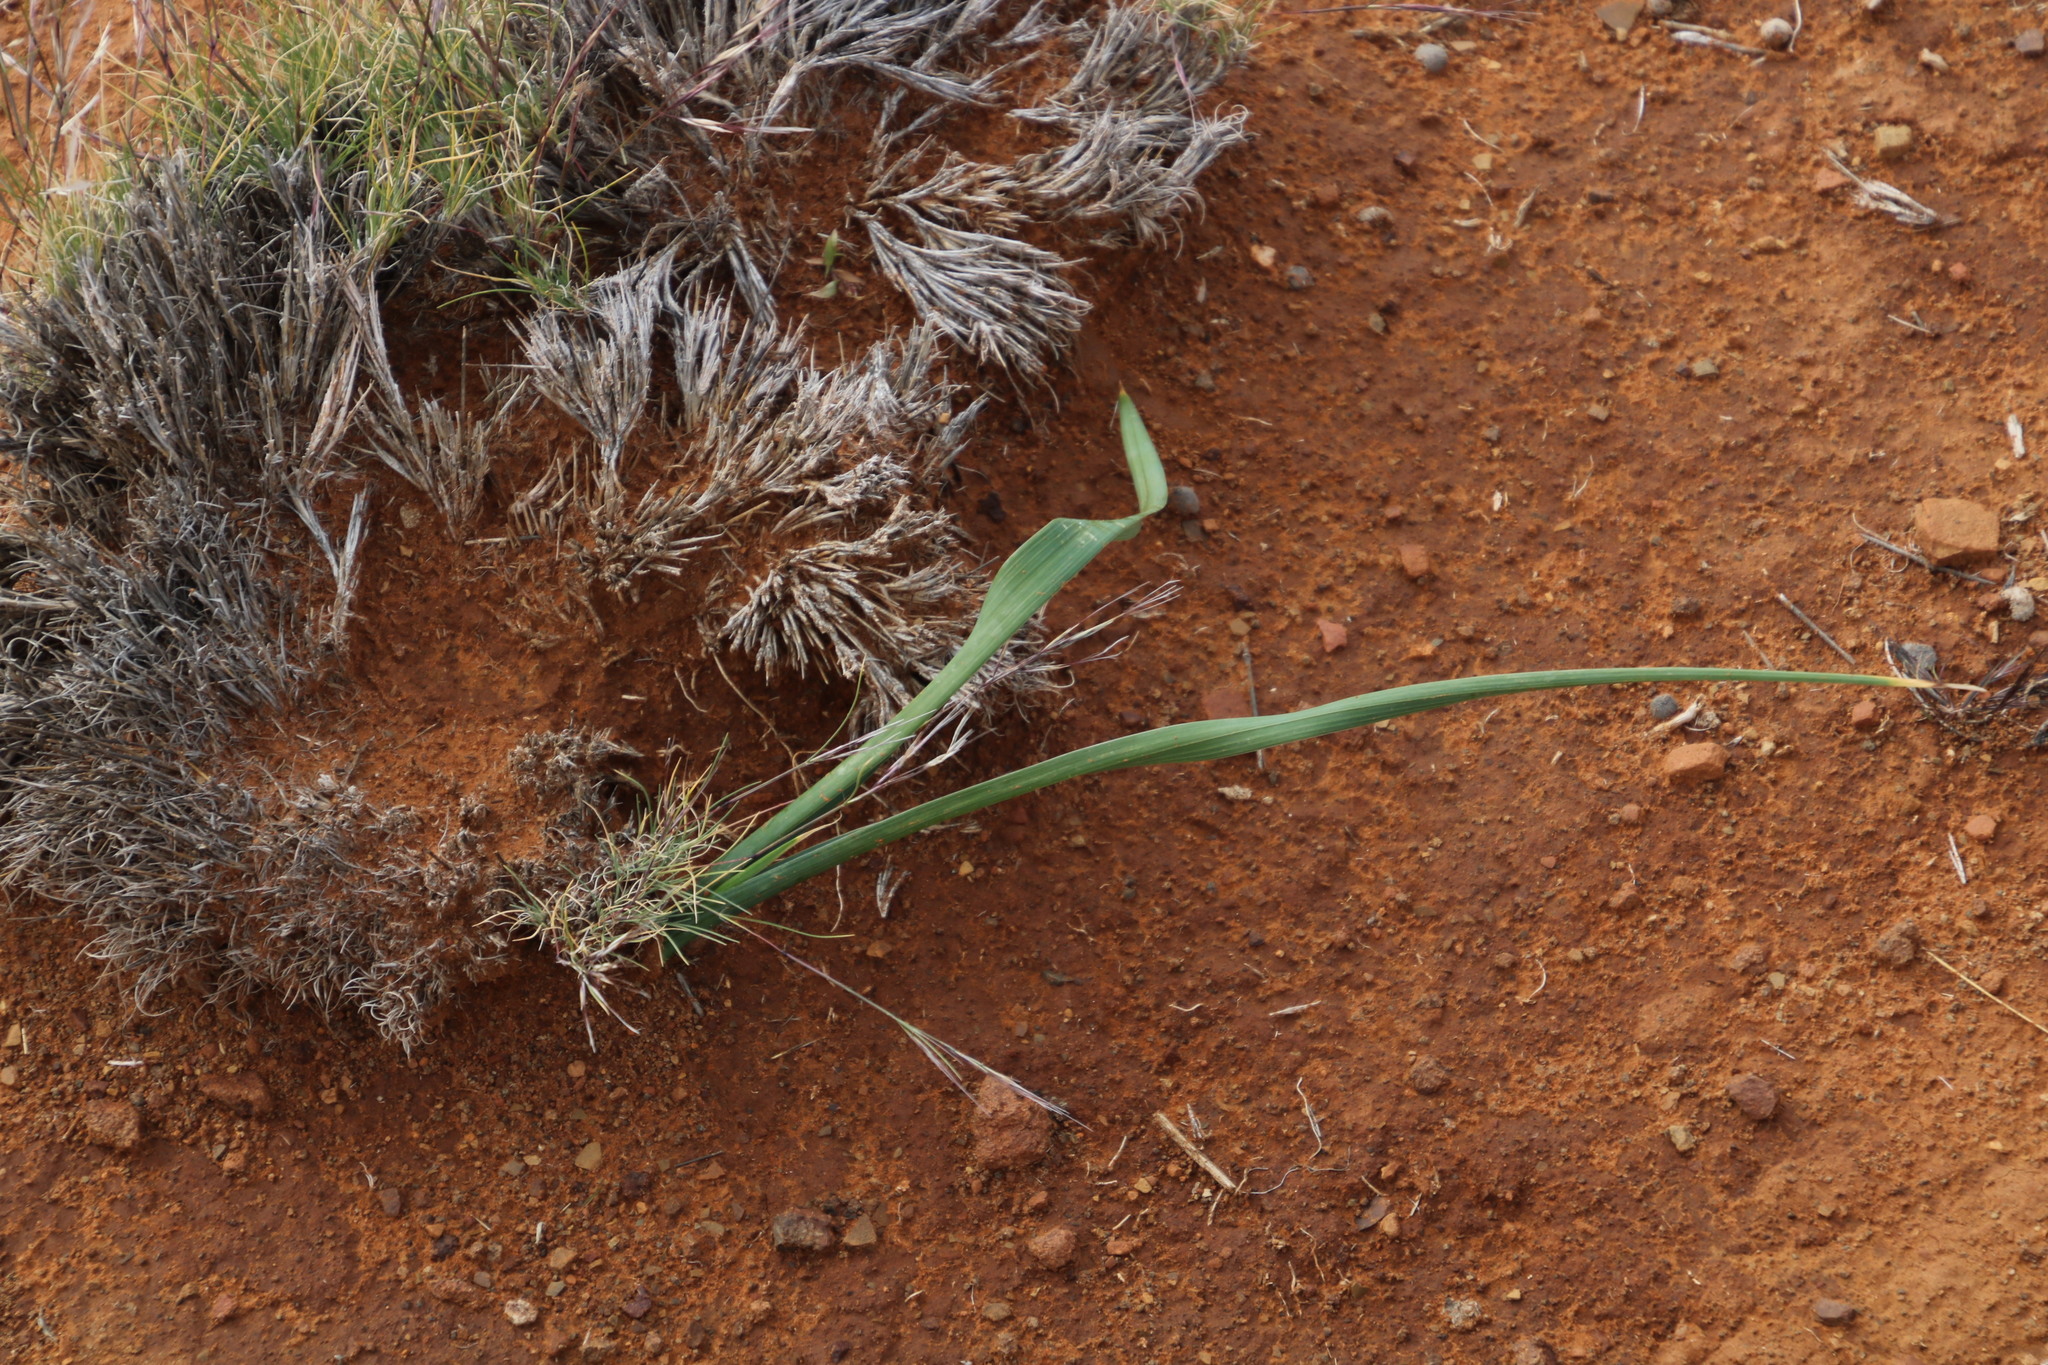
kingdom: Plantae
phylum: Tracheophyta
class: Liliopsida
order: Asparagales
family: Iridaceae
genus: Moraea
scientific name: Moraea polystachya
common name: Blue-tulip
